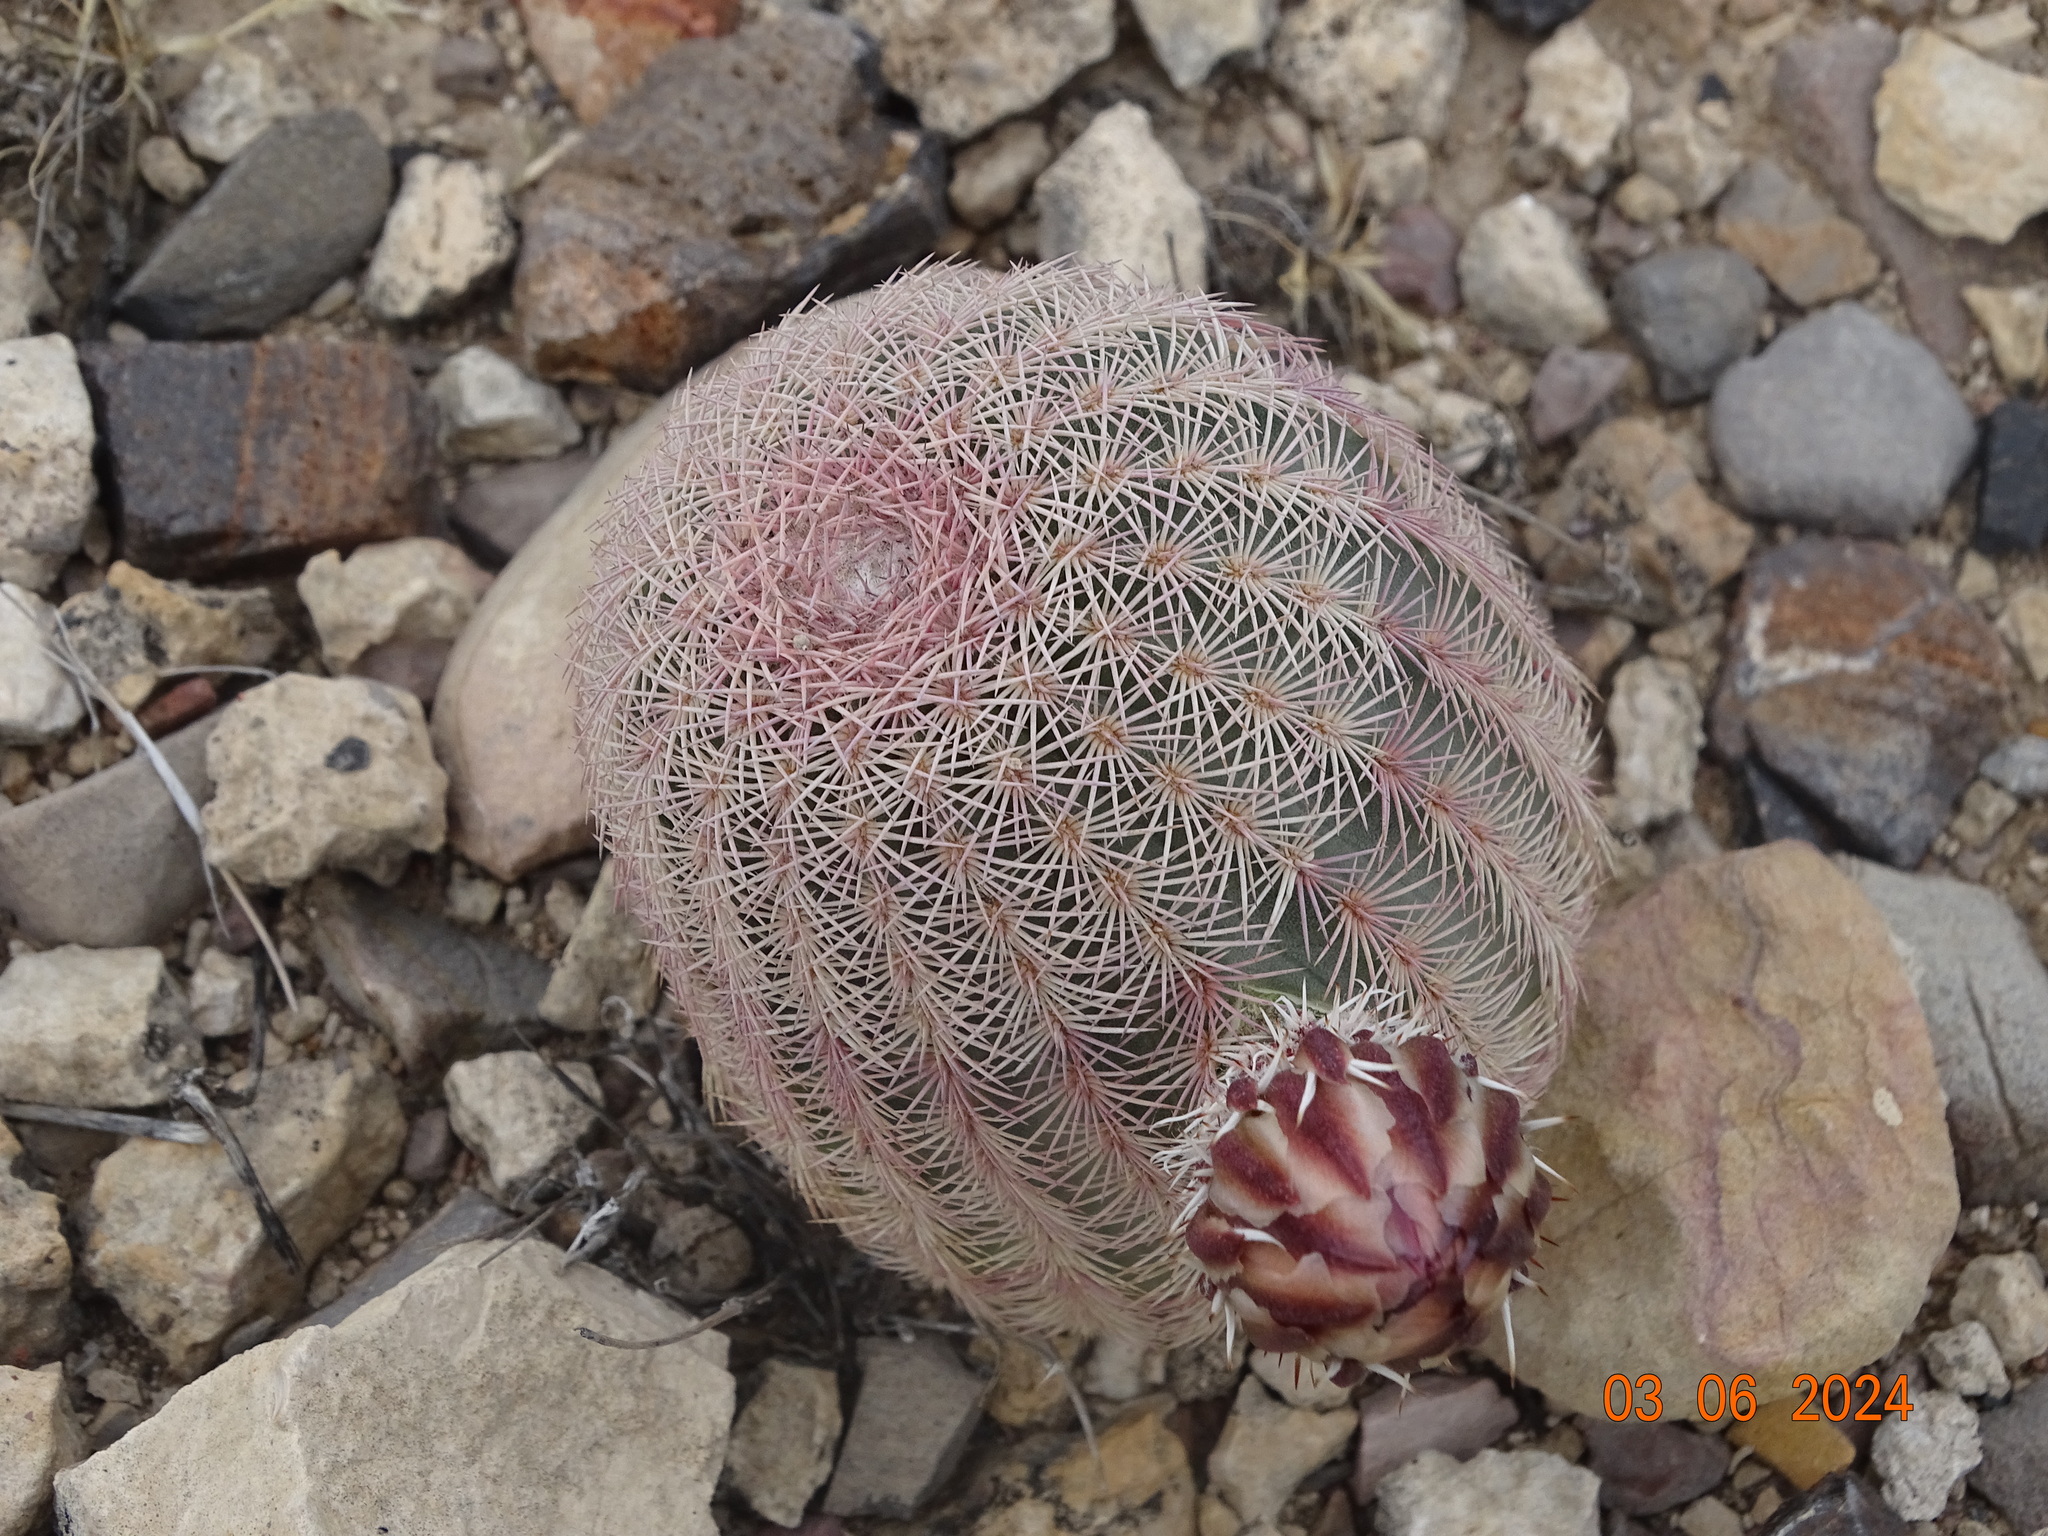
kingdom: Plantae
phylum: Tracheophyta
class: Magnoliopsida
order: Caryophyllales
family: Cactaceae
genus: Echinocereus
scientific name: Echinocereus pectinatus
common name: Rainbow cactus
